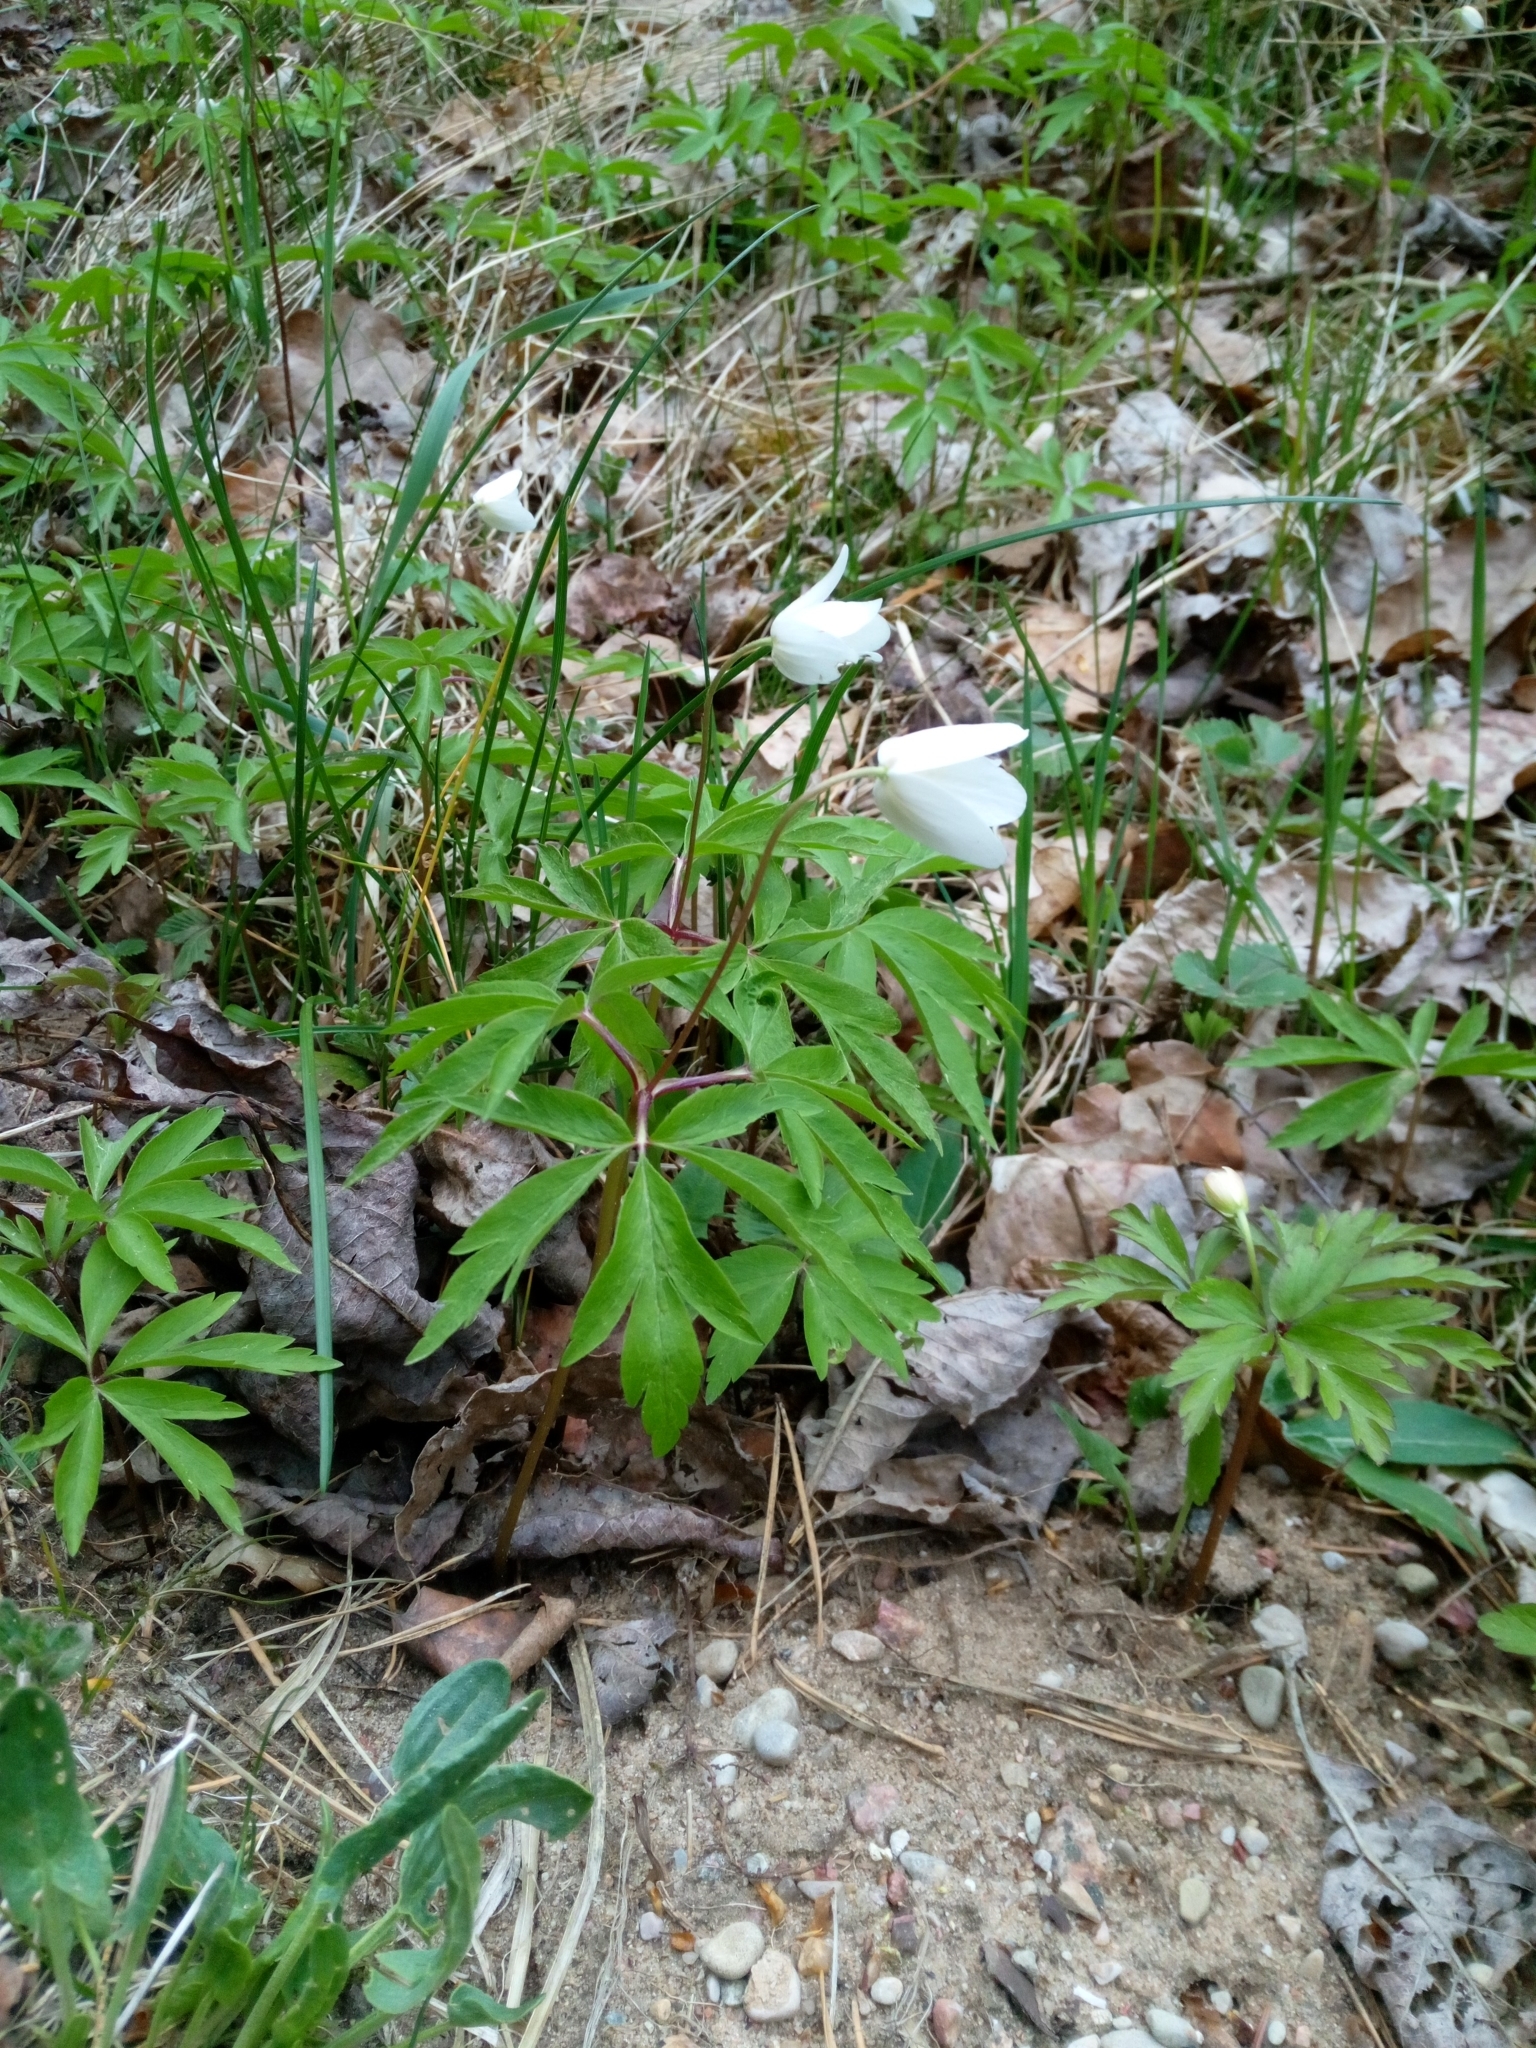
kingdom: Plantae
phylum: Tracheophyta
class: Magnoliopsida
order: Ranunculales
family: Ranunculaceae
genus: Anemone
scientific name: Anemone nemorosa
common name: Wood anemone
